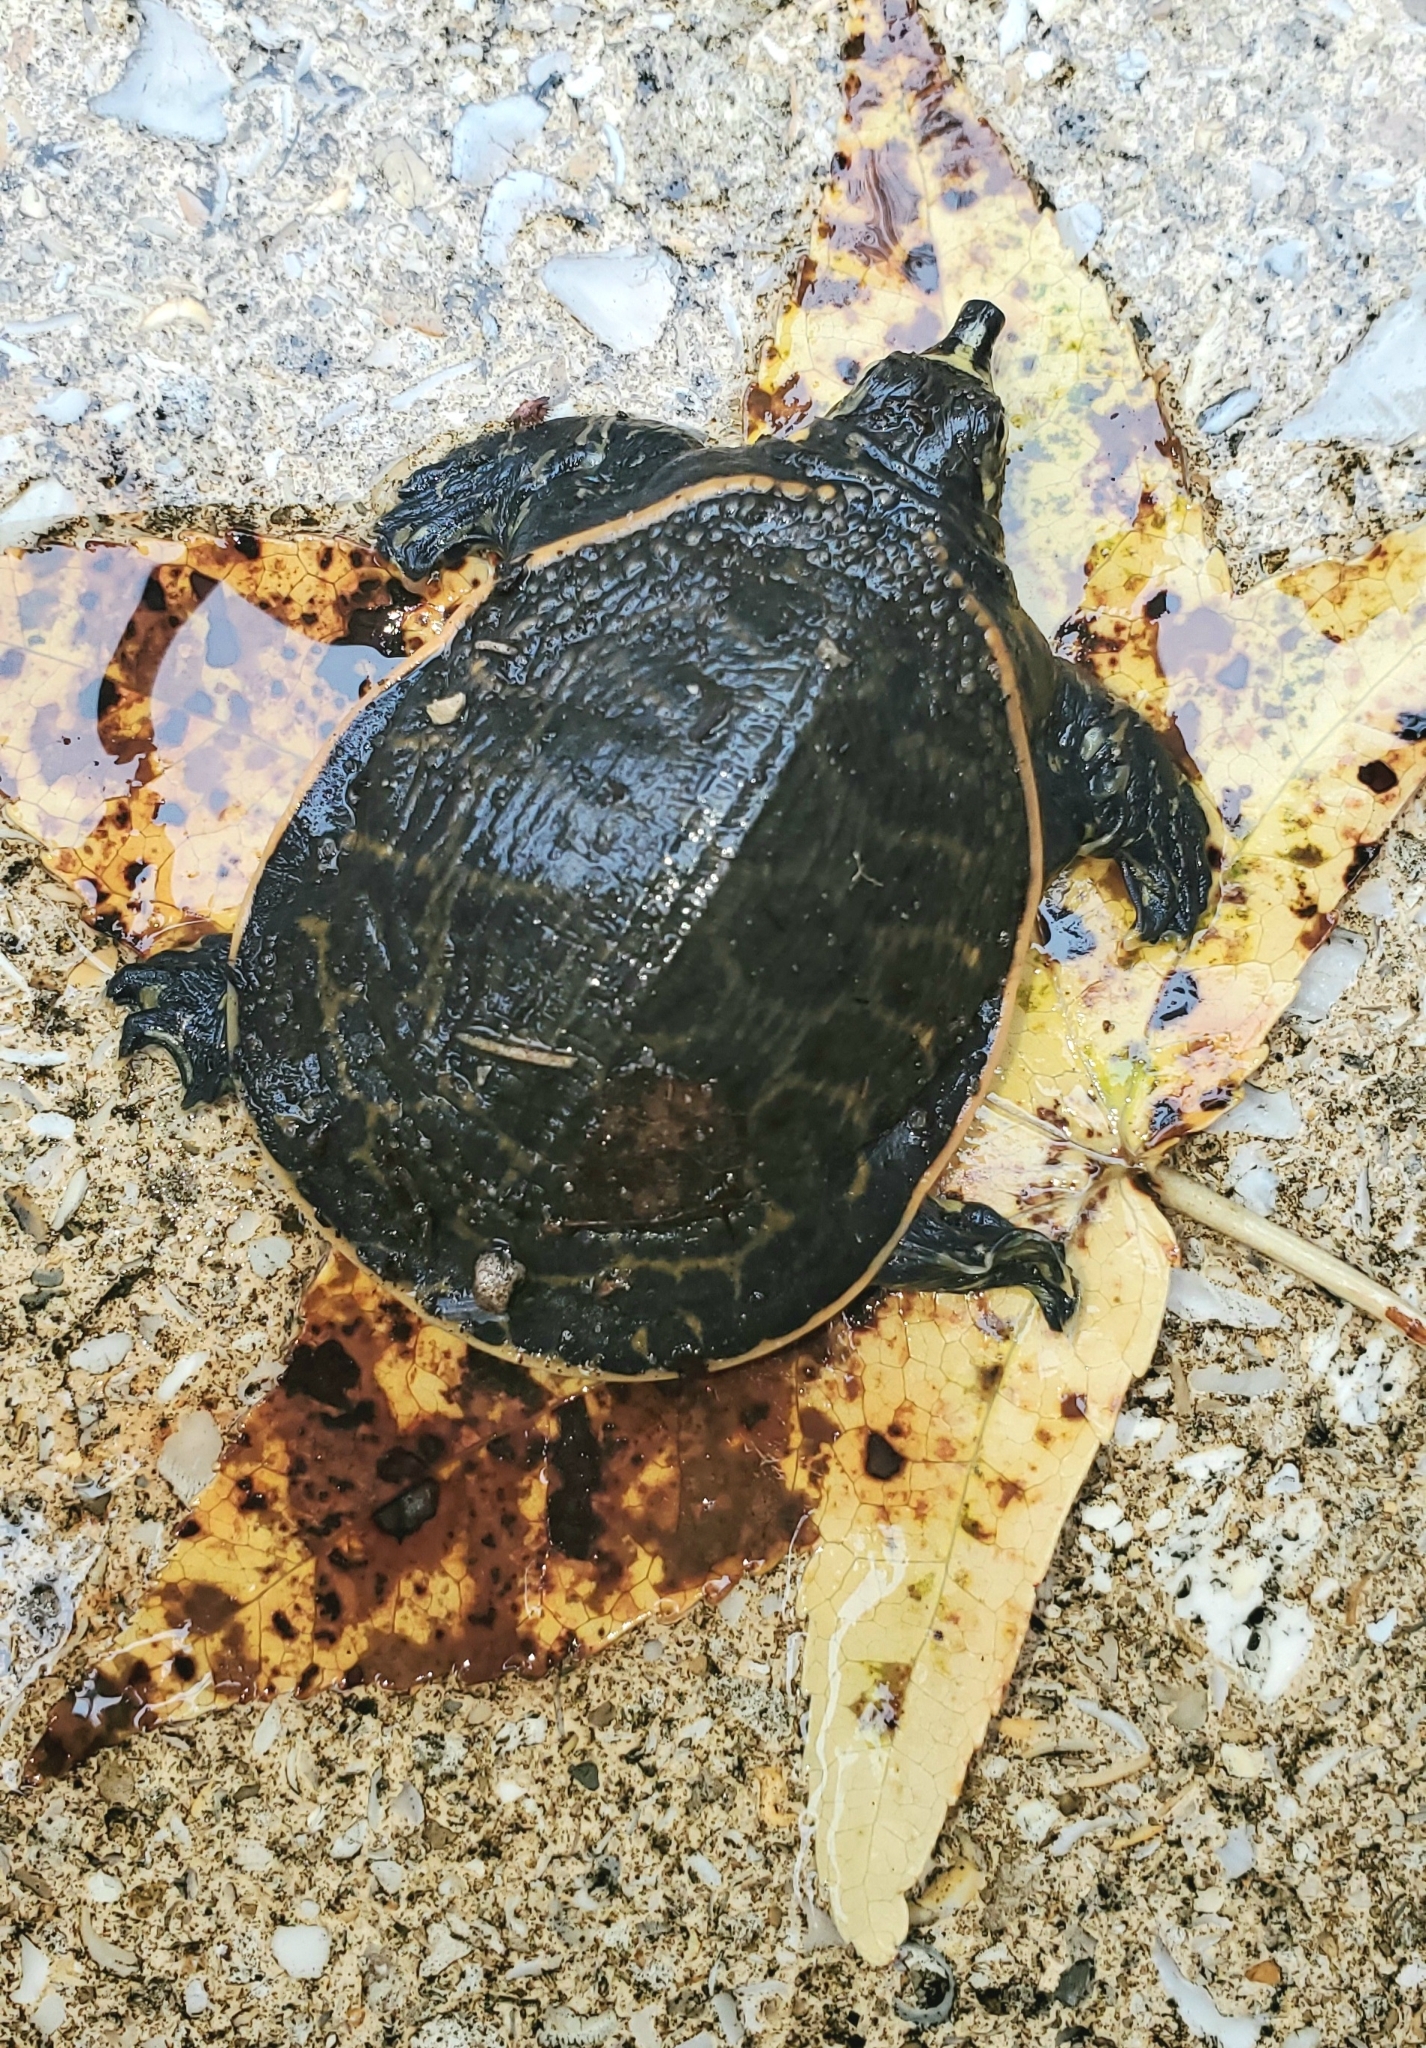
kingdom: Animalia
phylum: Chordata
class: Testudines
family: Trionychidae
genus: Apalone
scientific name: Apalone ferox
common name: Florida softshell turtle
